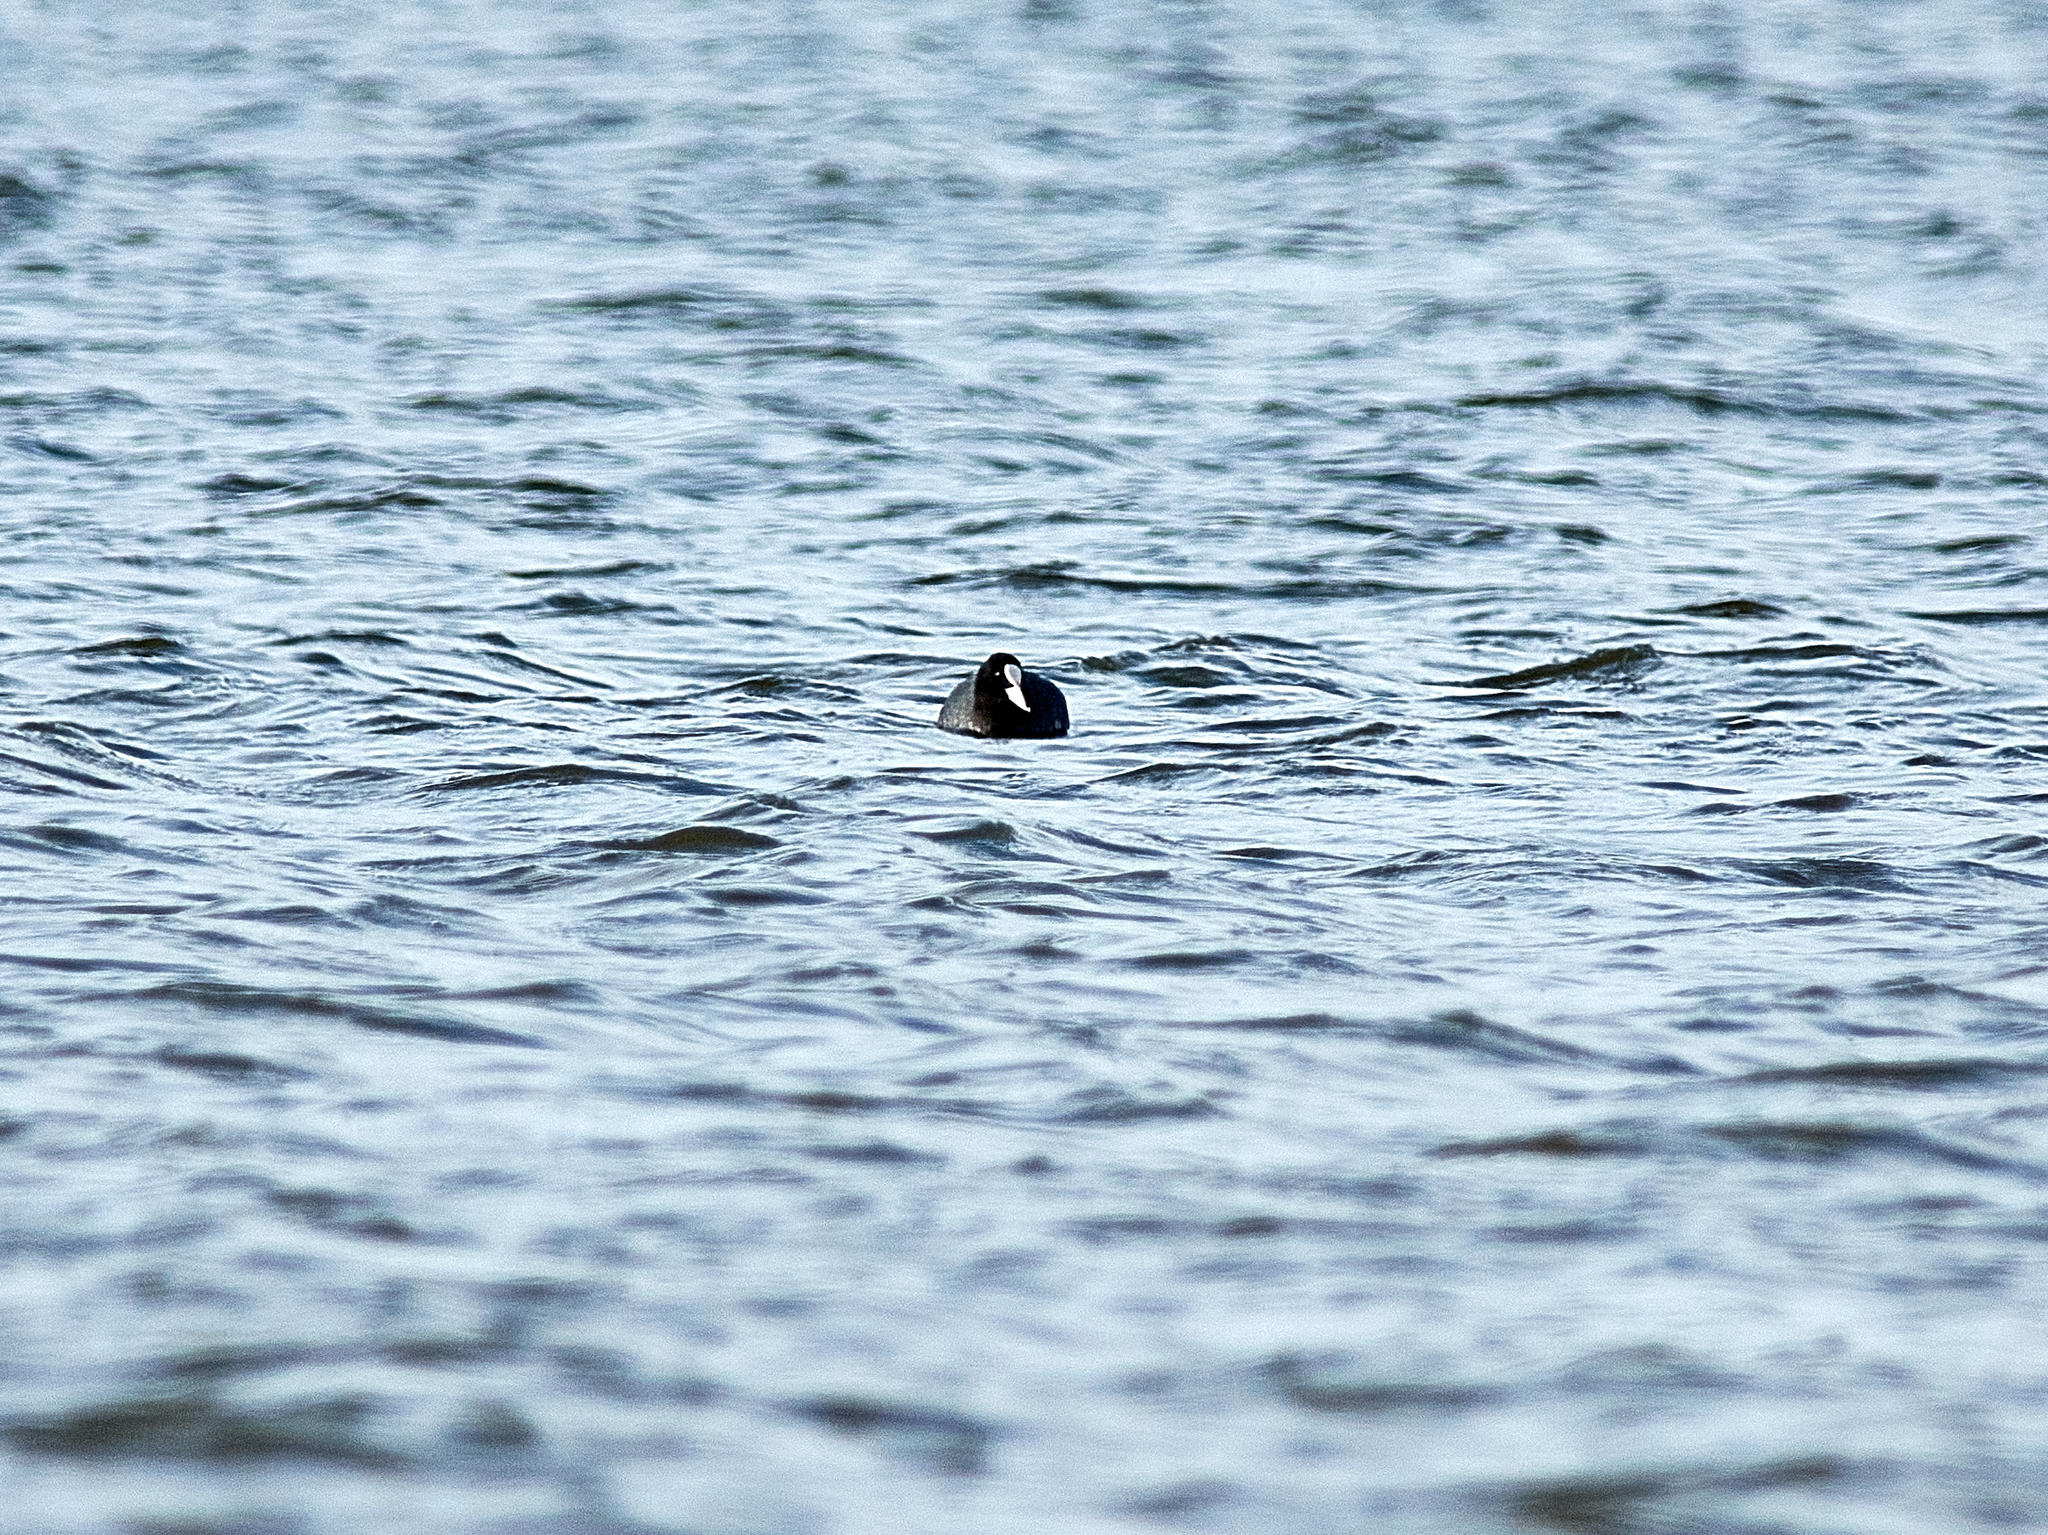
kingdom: Animalia
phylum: Chordata
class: Aves
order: Gruiformes
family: Rallidae
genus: Fulica
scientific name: Fulica atra
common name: Eurasian coot
